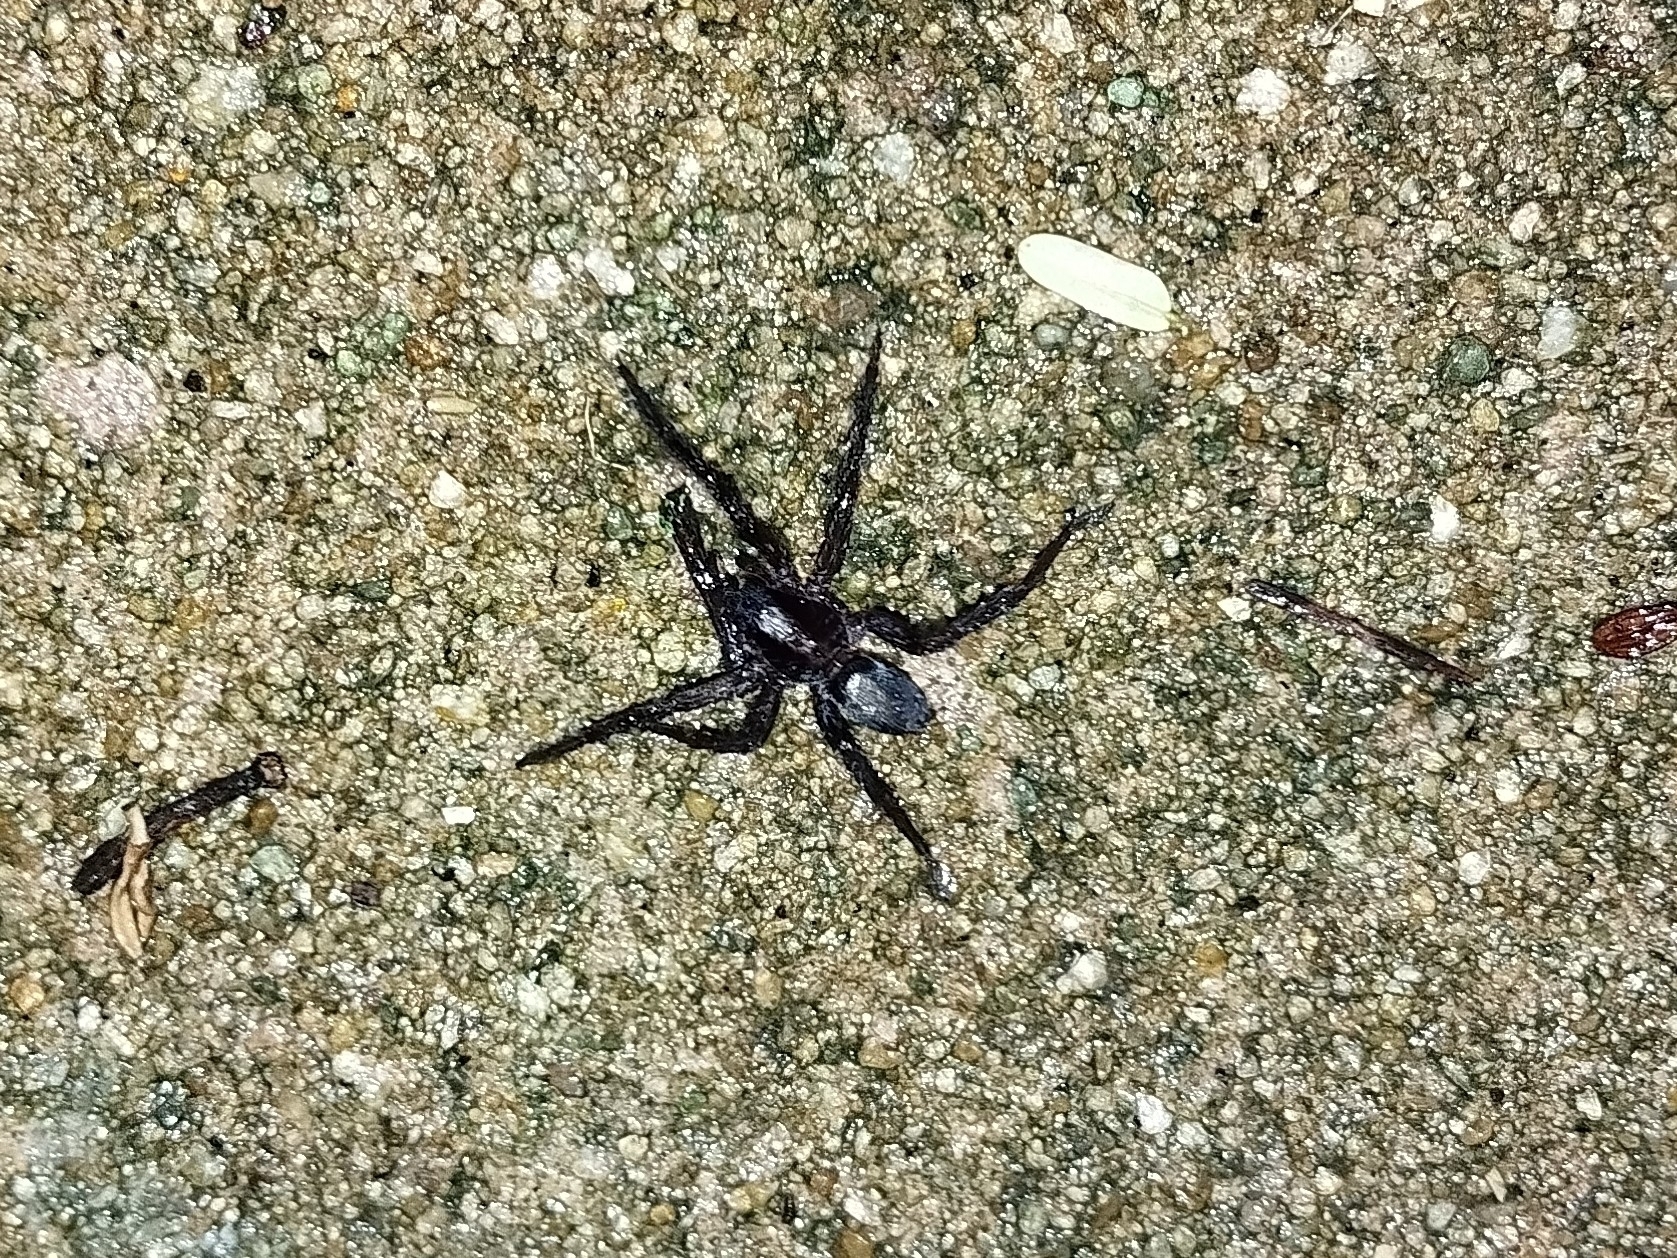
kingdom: Animalia
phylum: Arthropoda
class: Arachnida
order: Araneae
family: Miturgidae
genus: Teminius
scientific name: Teminius insularis
